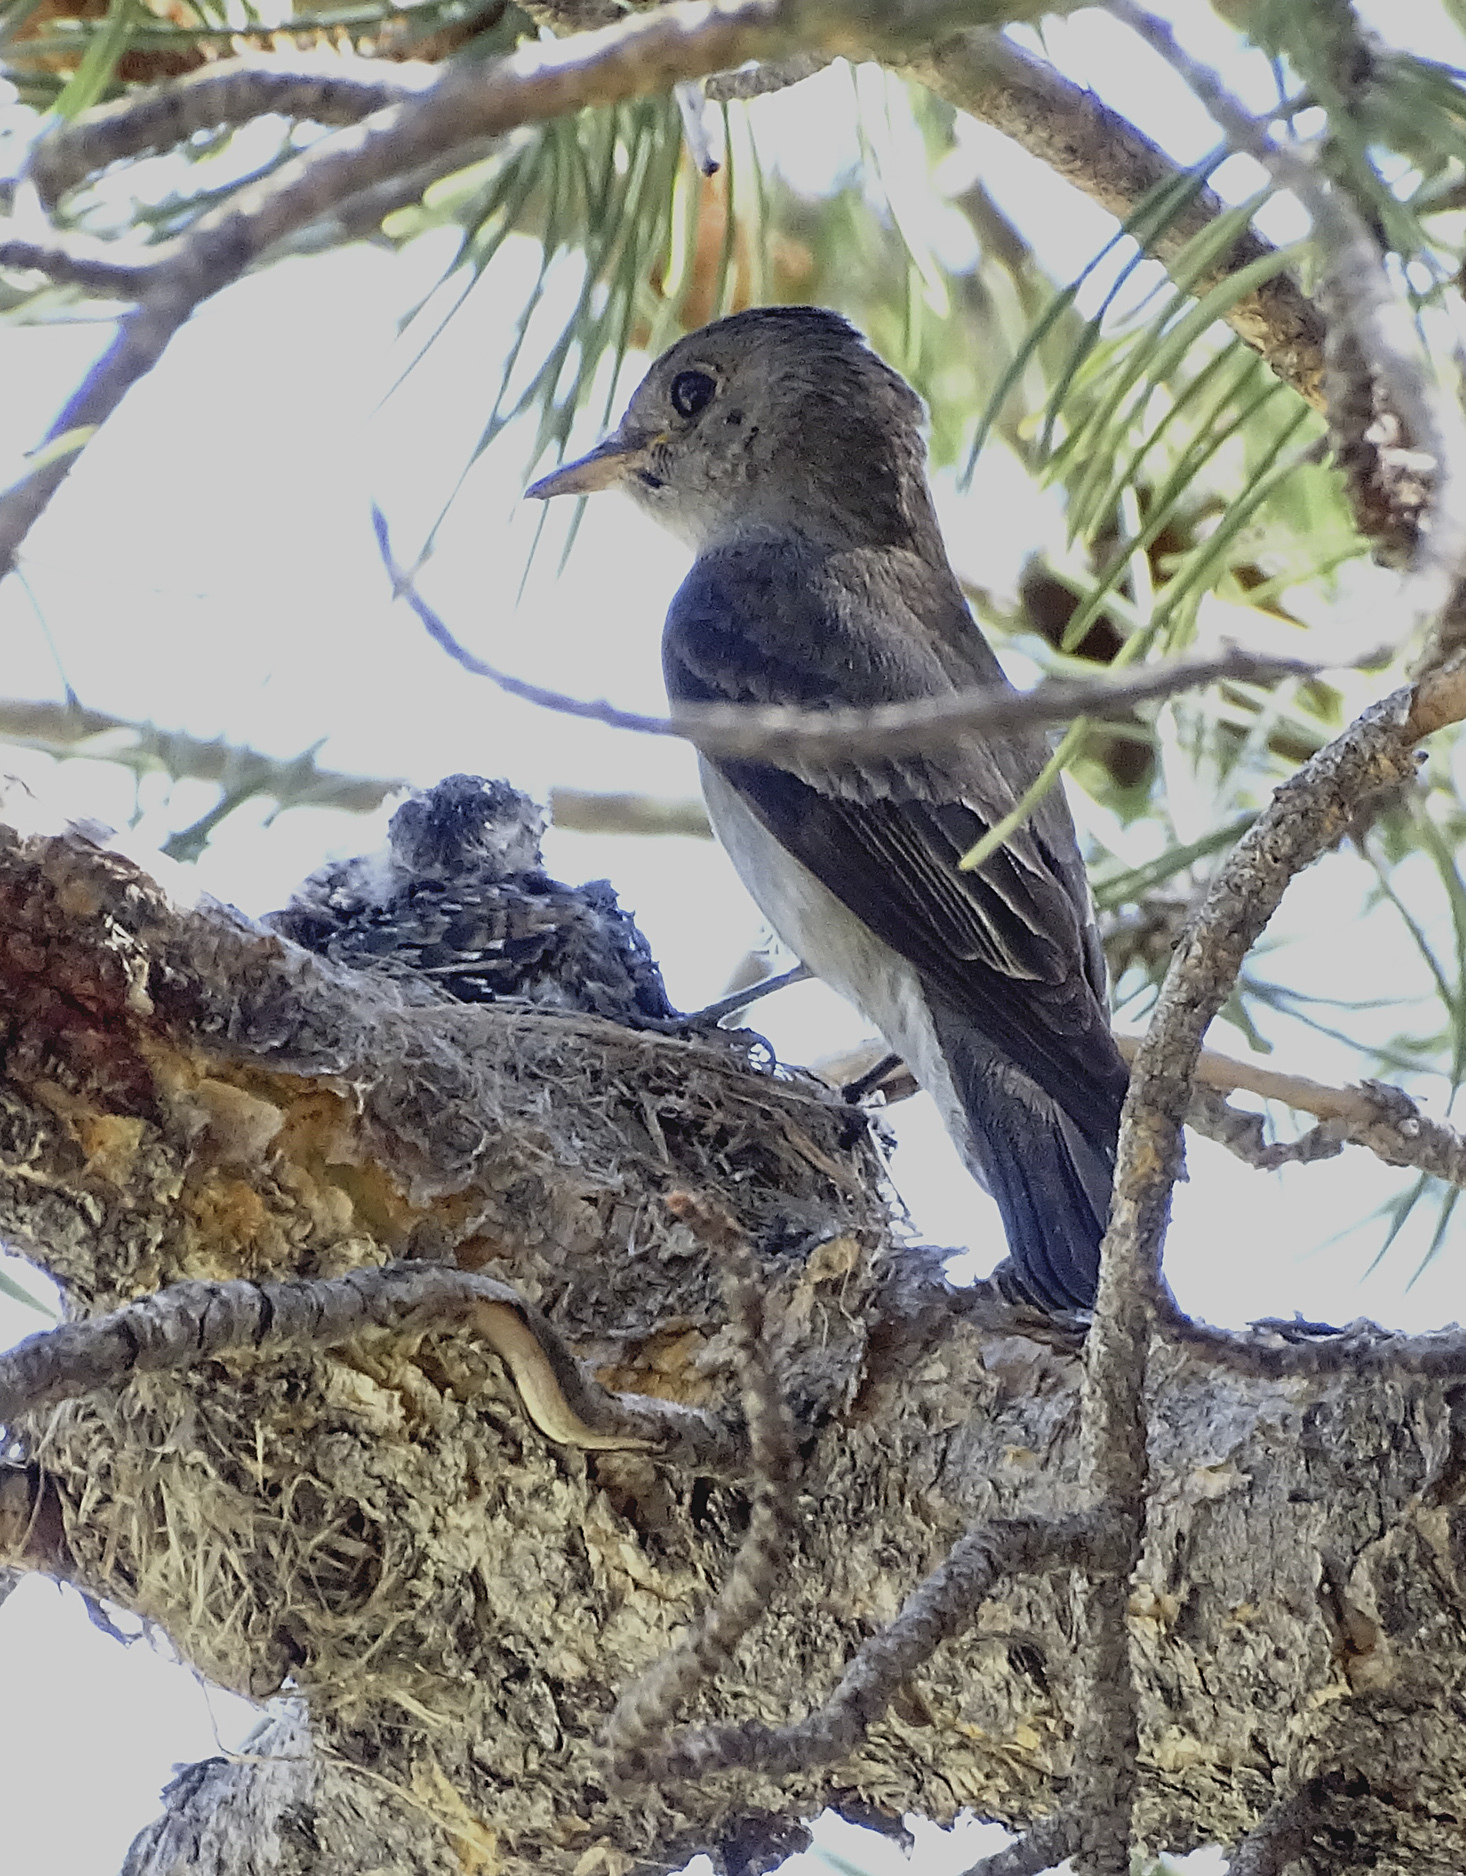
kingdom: Animalia
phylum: Chordata
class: Aves
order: Passeriformes
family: Tyrannidae
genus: Contopus
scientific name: Contopus sordidulus
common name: Western wood-pewee
